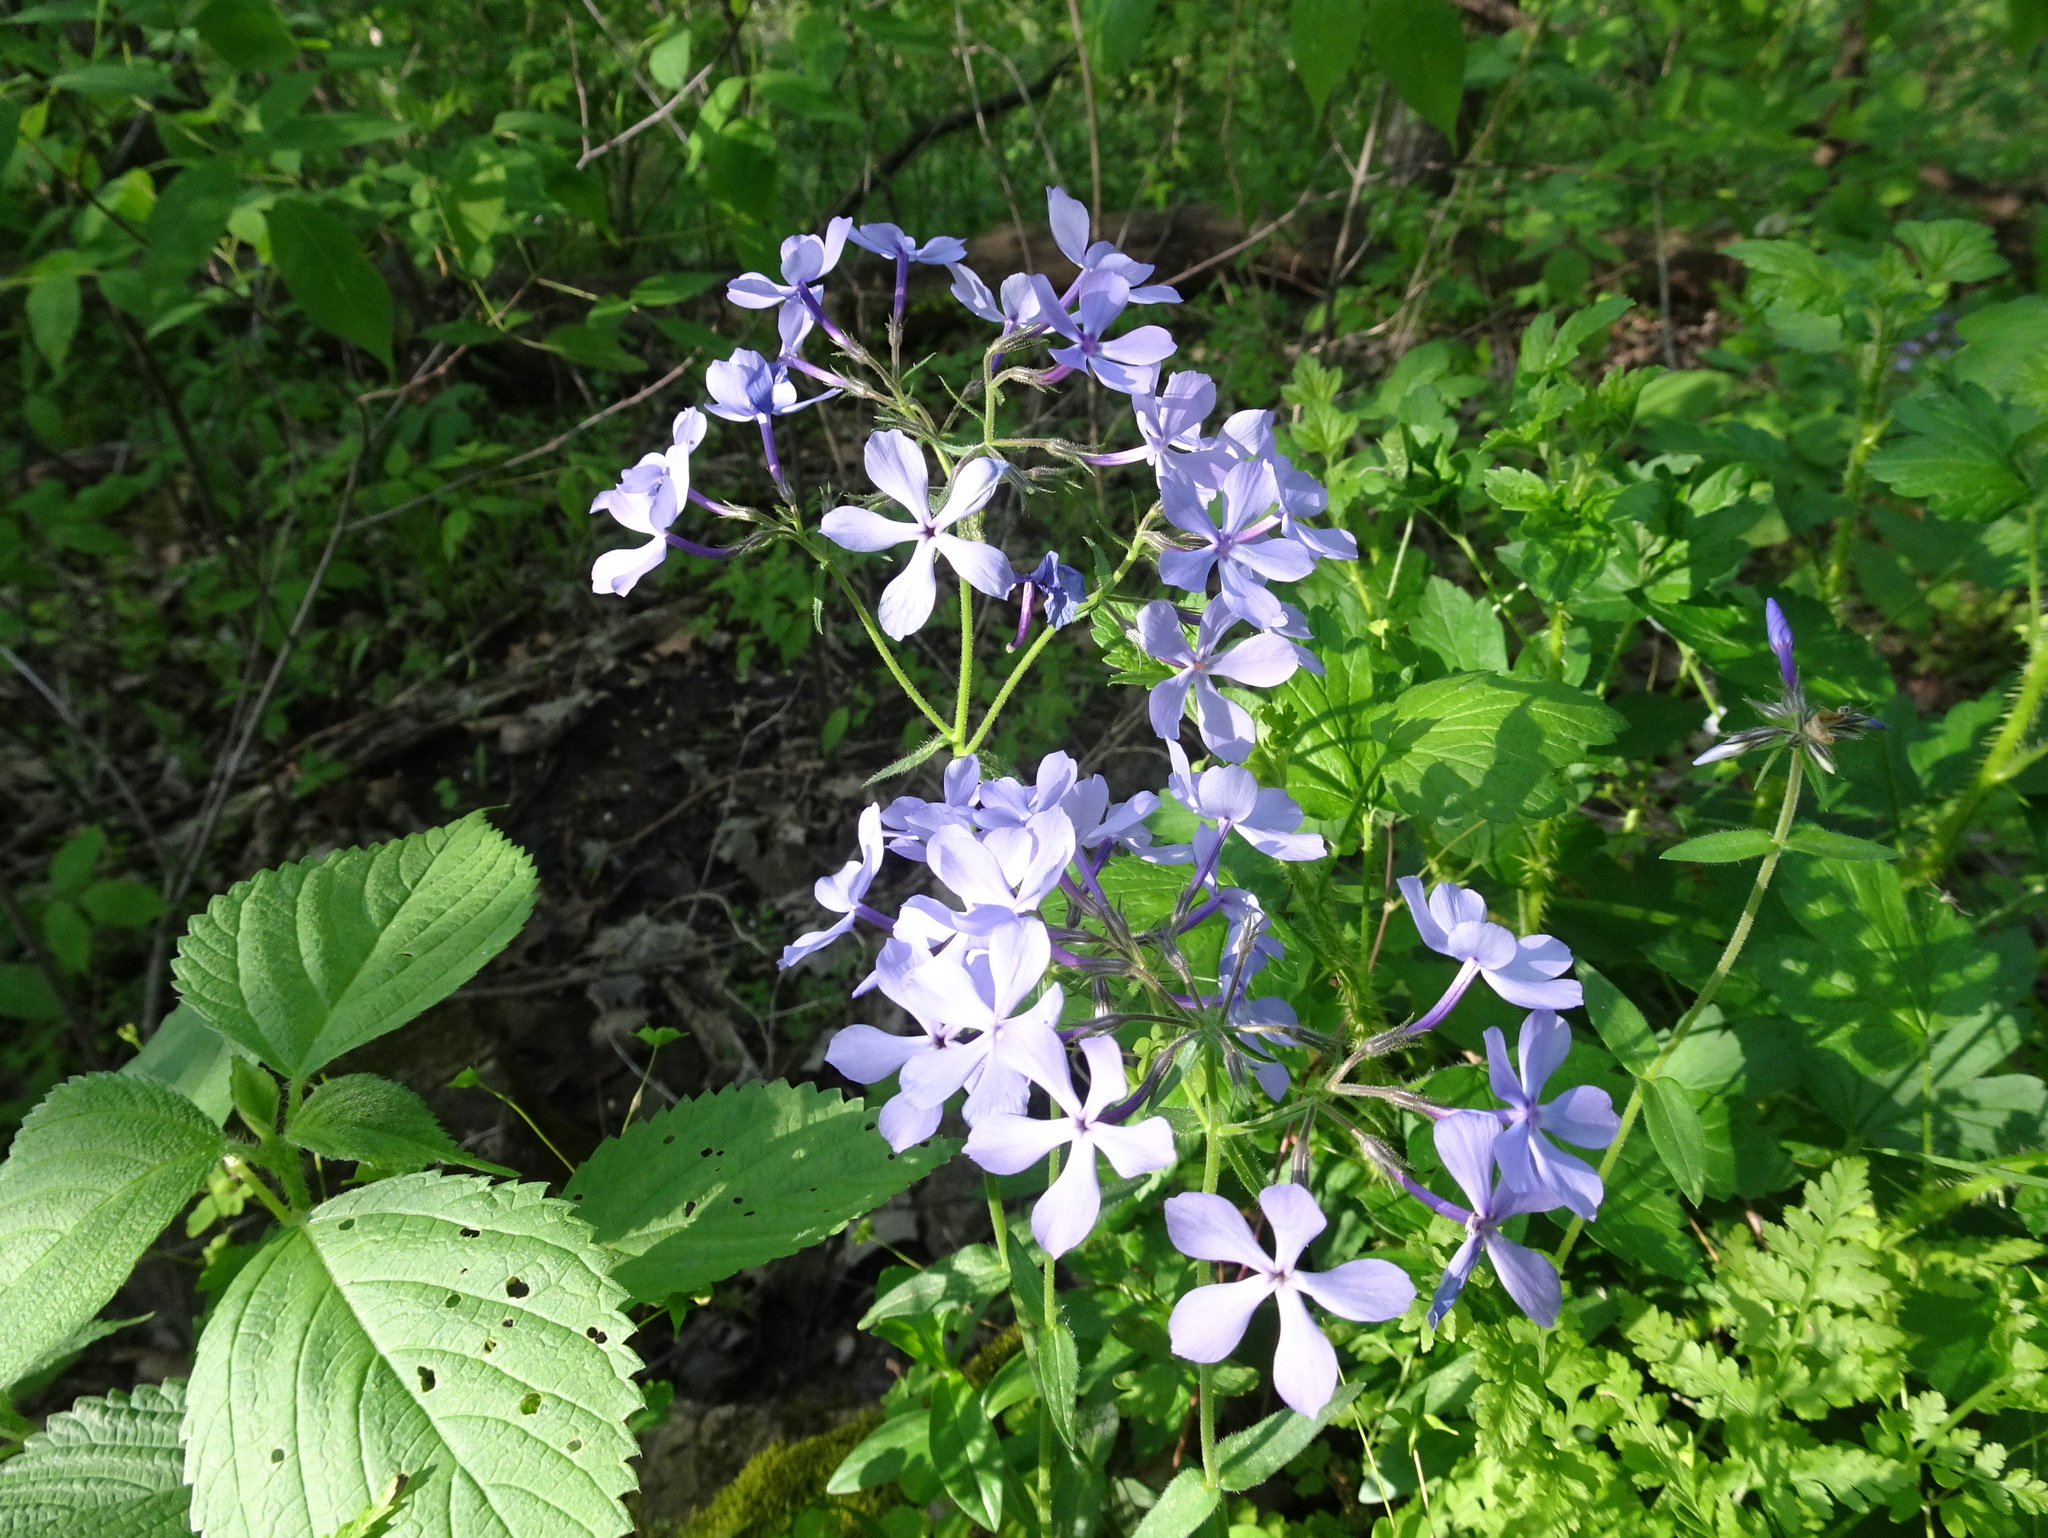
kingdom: Plantae
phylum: Tracheophyta
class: Magnoliopsida
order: Ericales
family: Polemoniaceae
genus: Phlox
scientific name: Phlox divaricata
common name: Blue phlox
